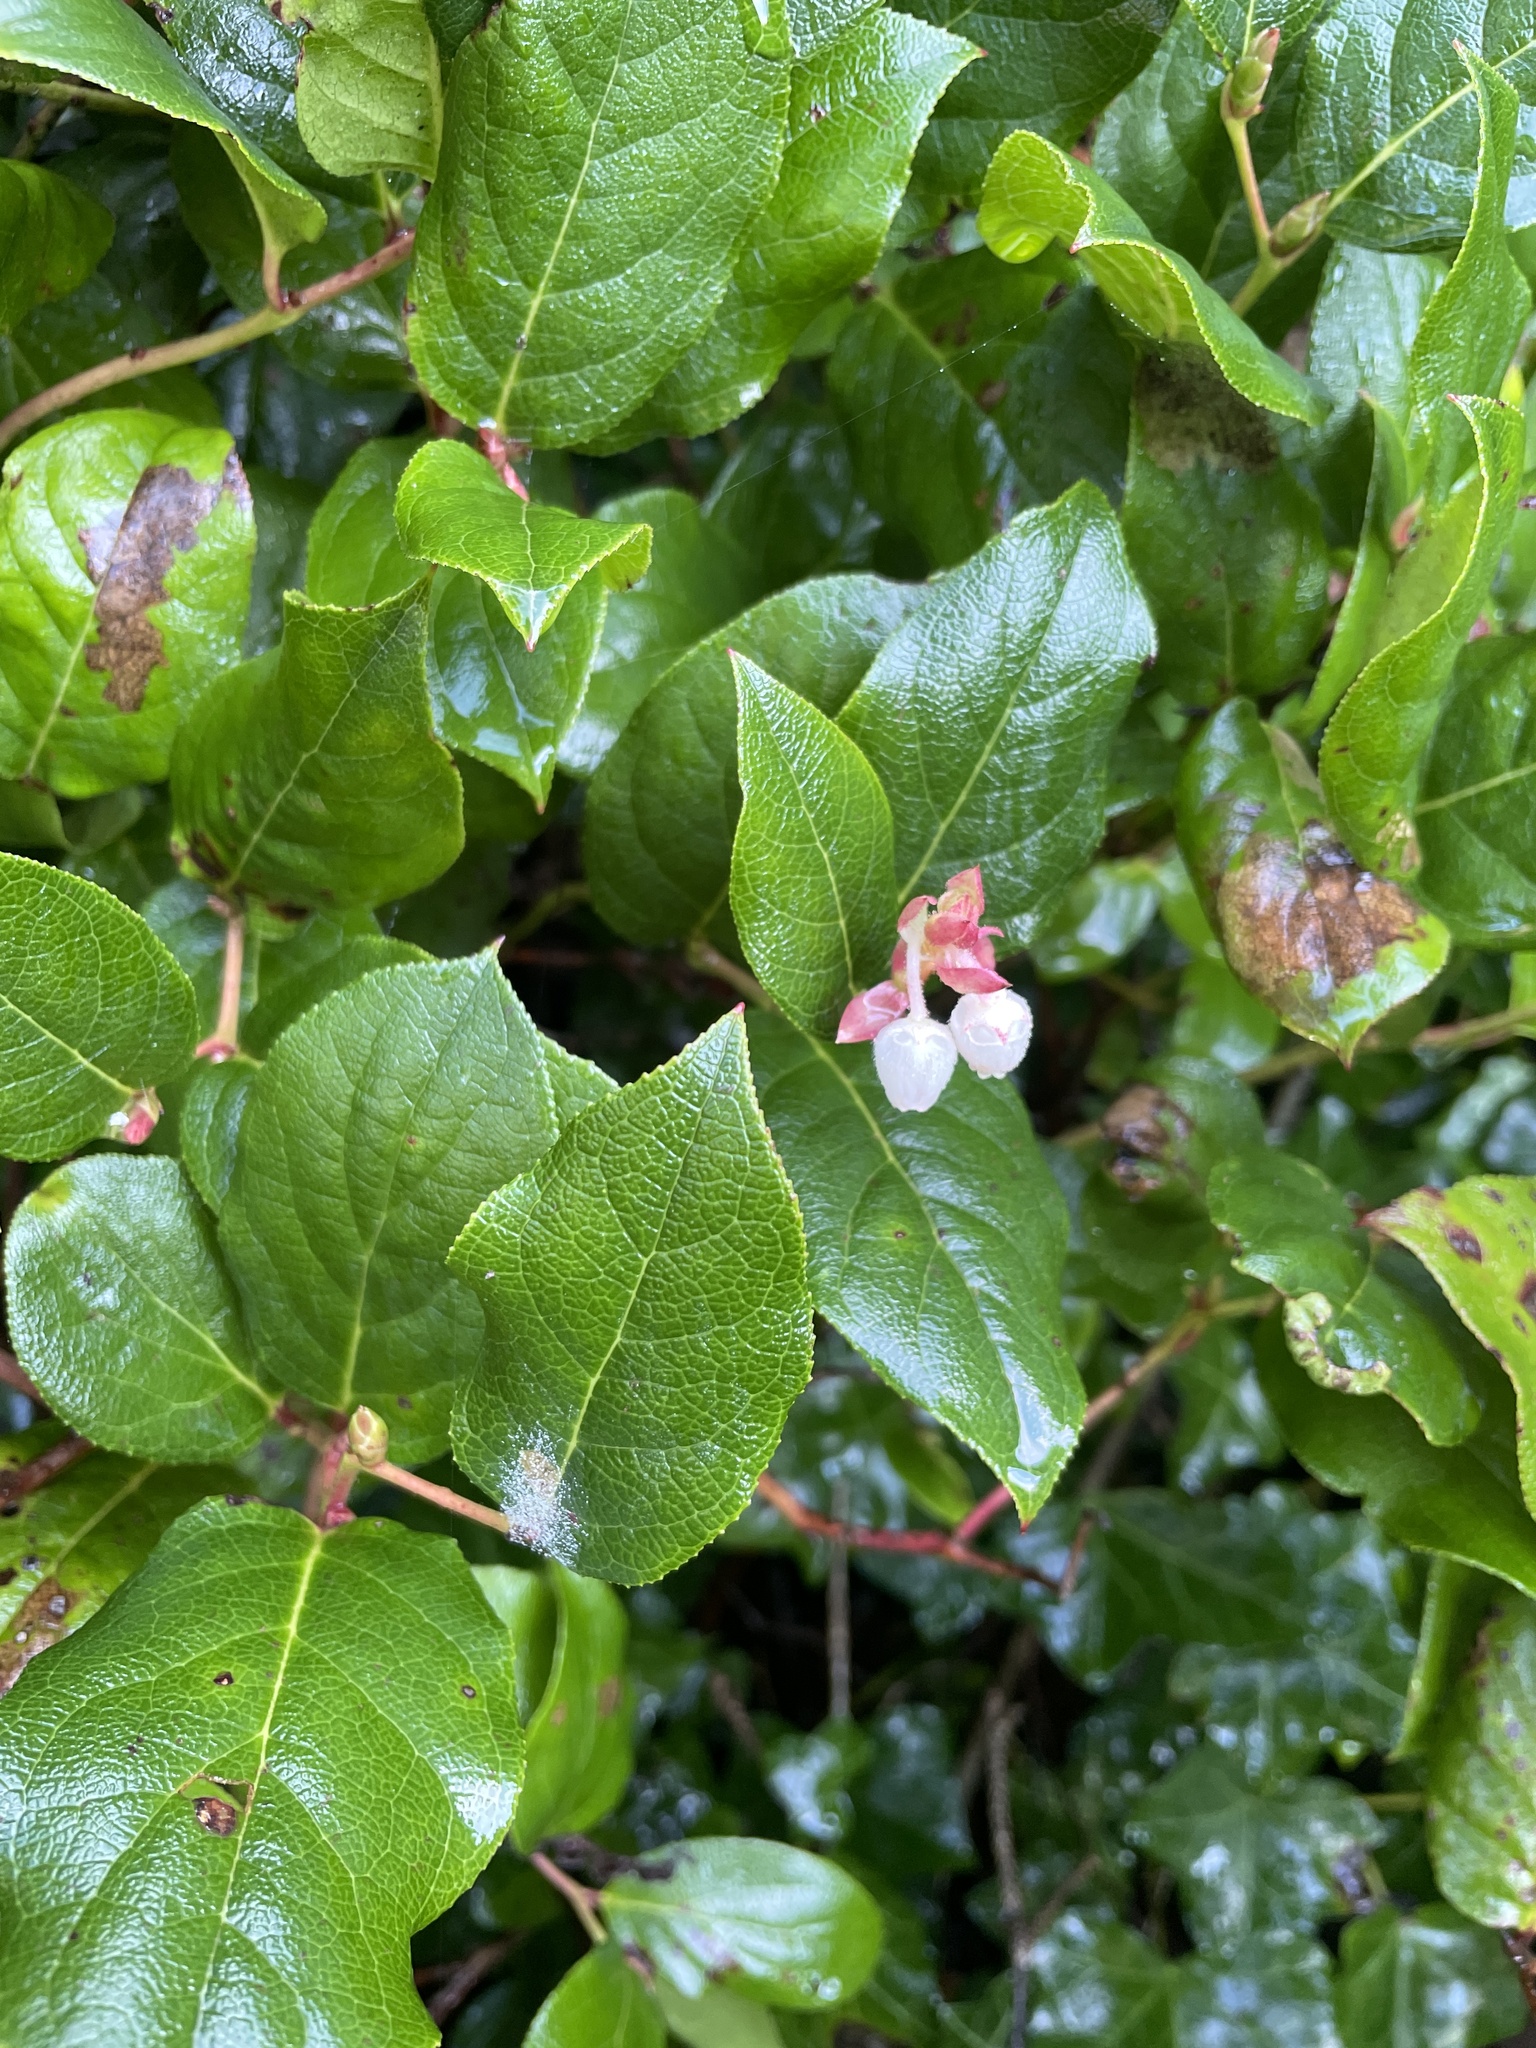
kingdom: Plantae
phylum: Tracheophyta
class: Magnoliopsida
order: Ericales
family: Ericaceae
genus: Gaultheria
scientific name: Gaultheria shallon
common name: Shallon
